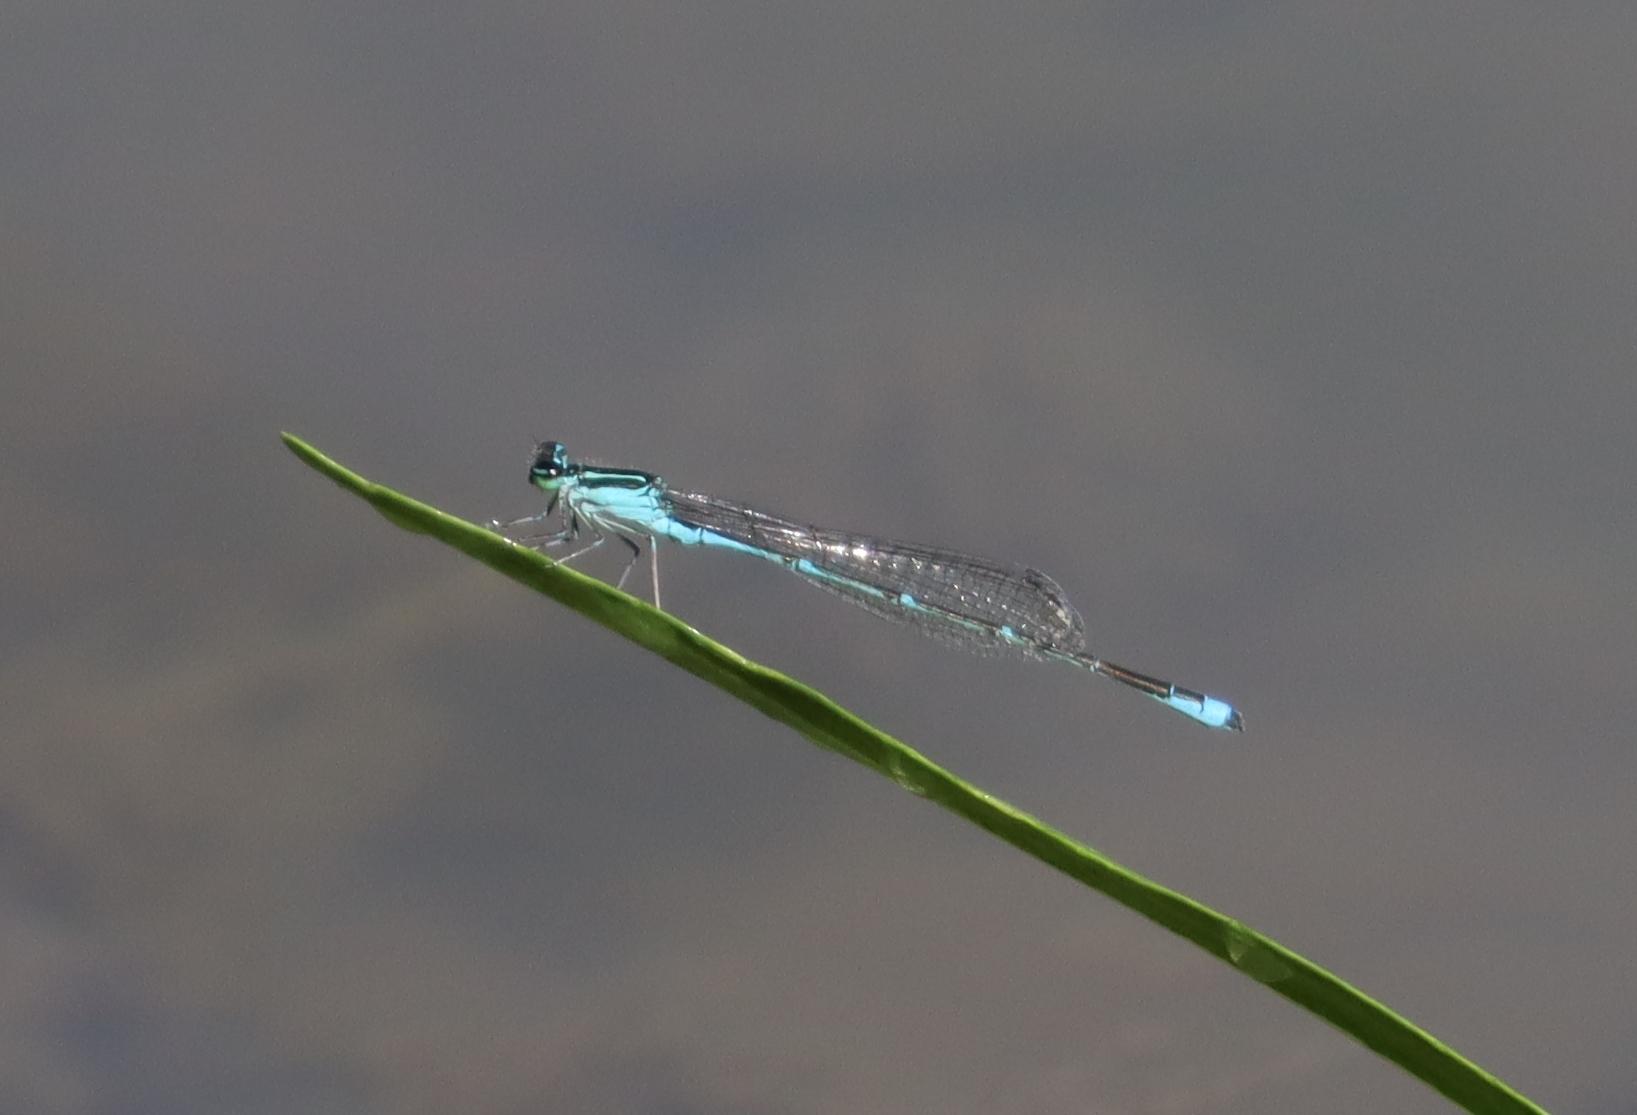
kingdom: Animalia
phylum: Arthropoda
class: Insecta
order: Odonata
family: Coenagrionidae
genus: Enallagma
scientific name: Enallagma exsulans
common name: Stream bluet
